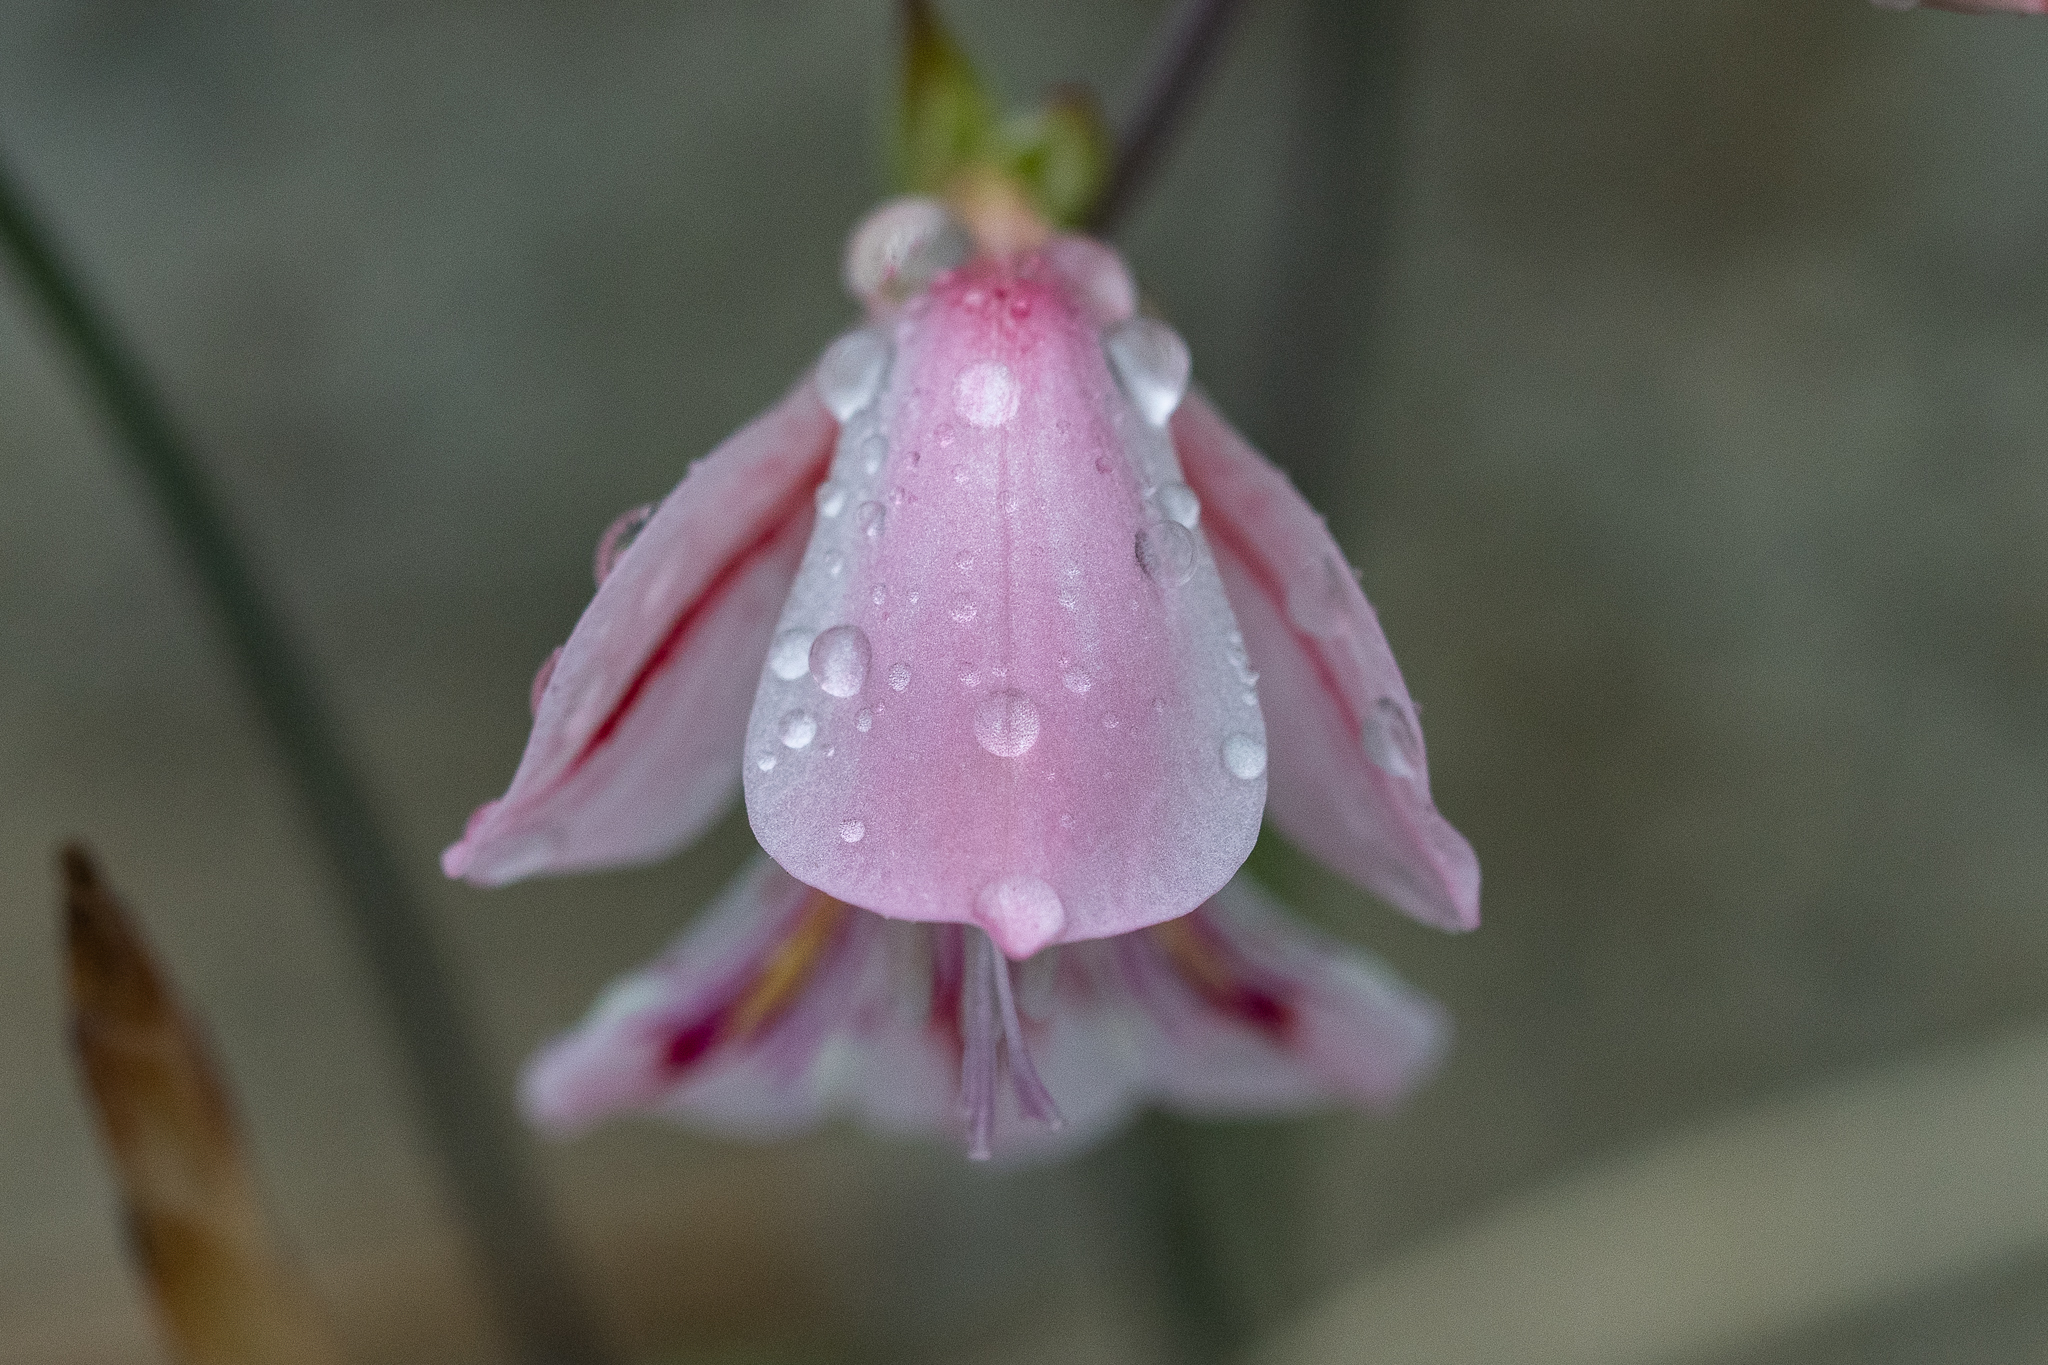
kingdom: Plantae
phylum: Tracheophyta
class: Liliopsida
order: Asparagales
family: Iridaceae
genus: Gladiolus
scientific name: Gladiolus brevifolius
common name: March pypie
